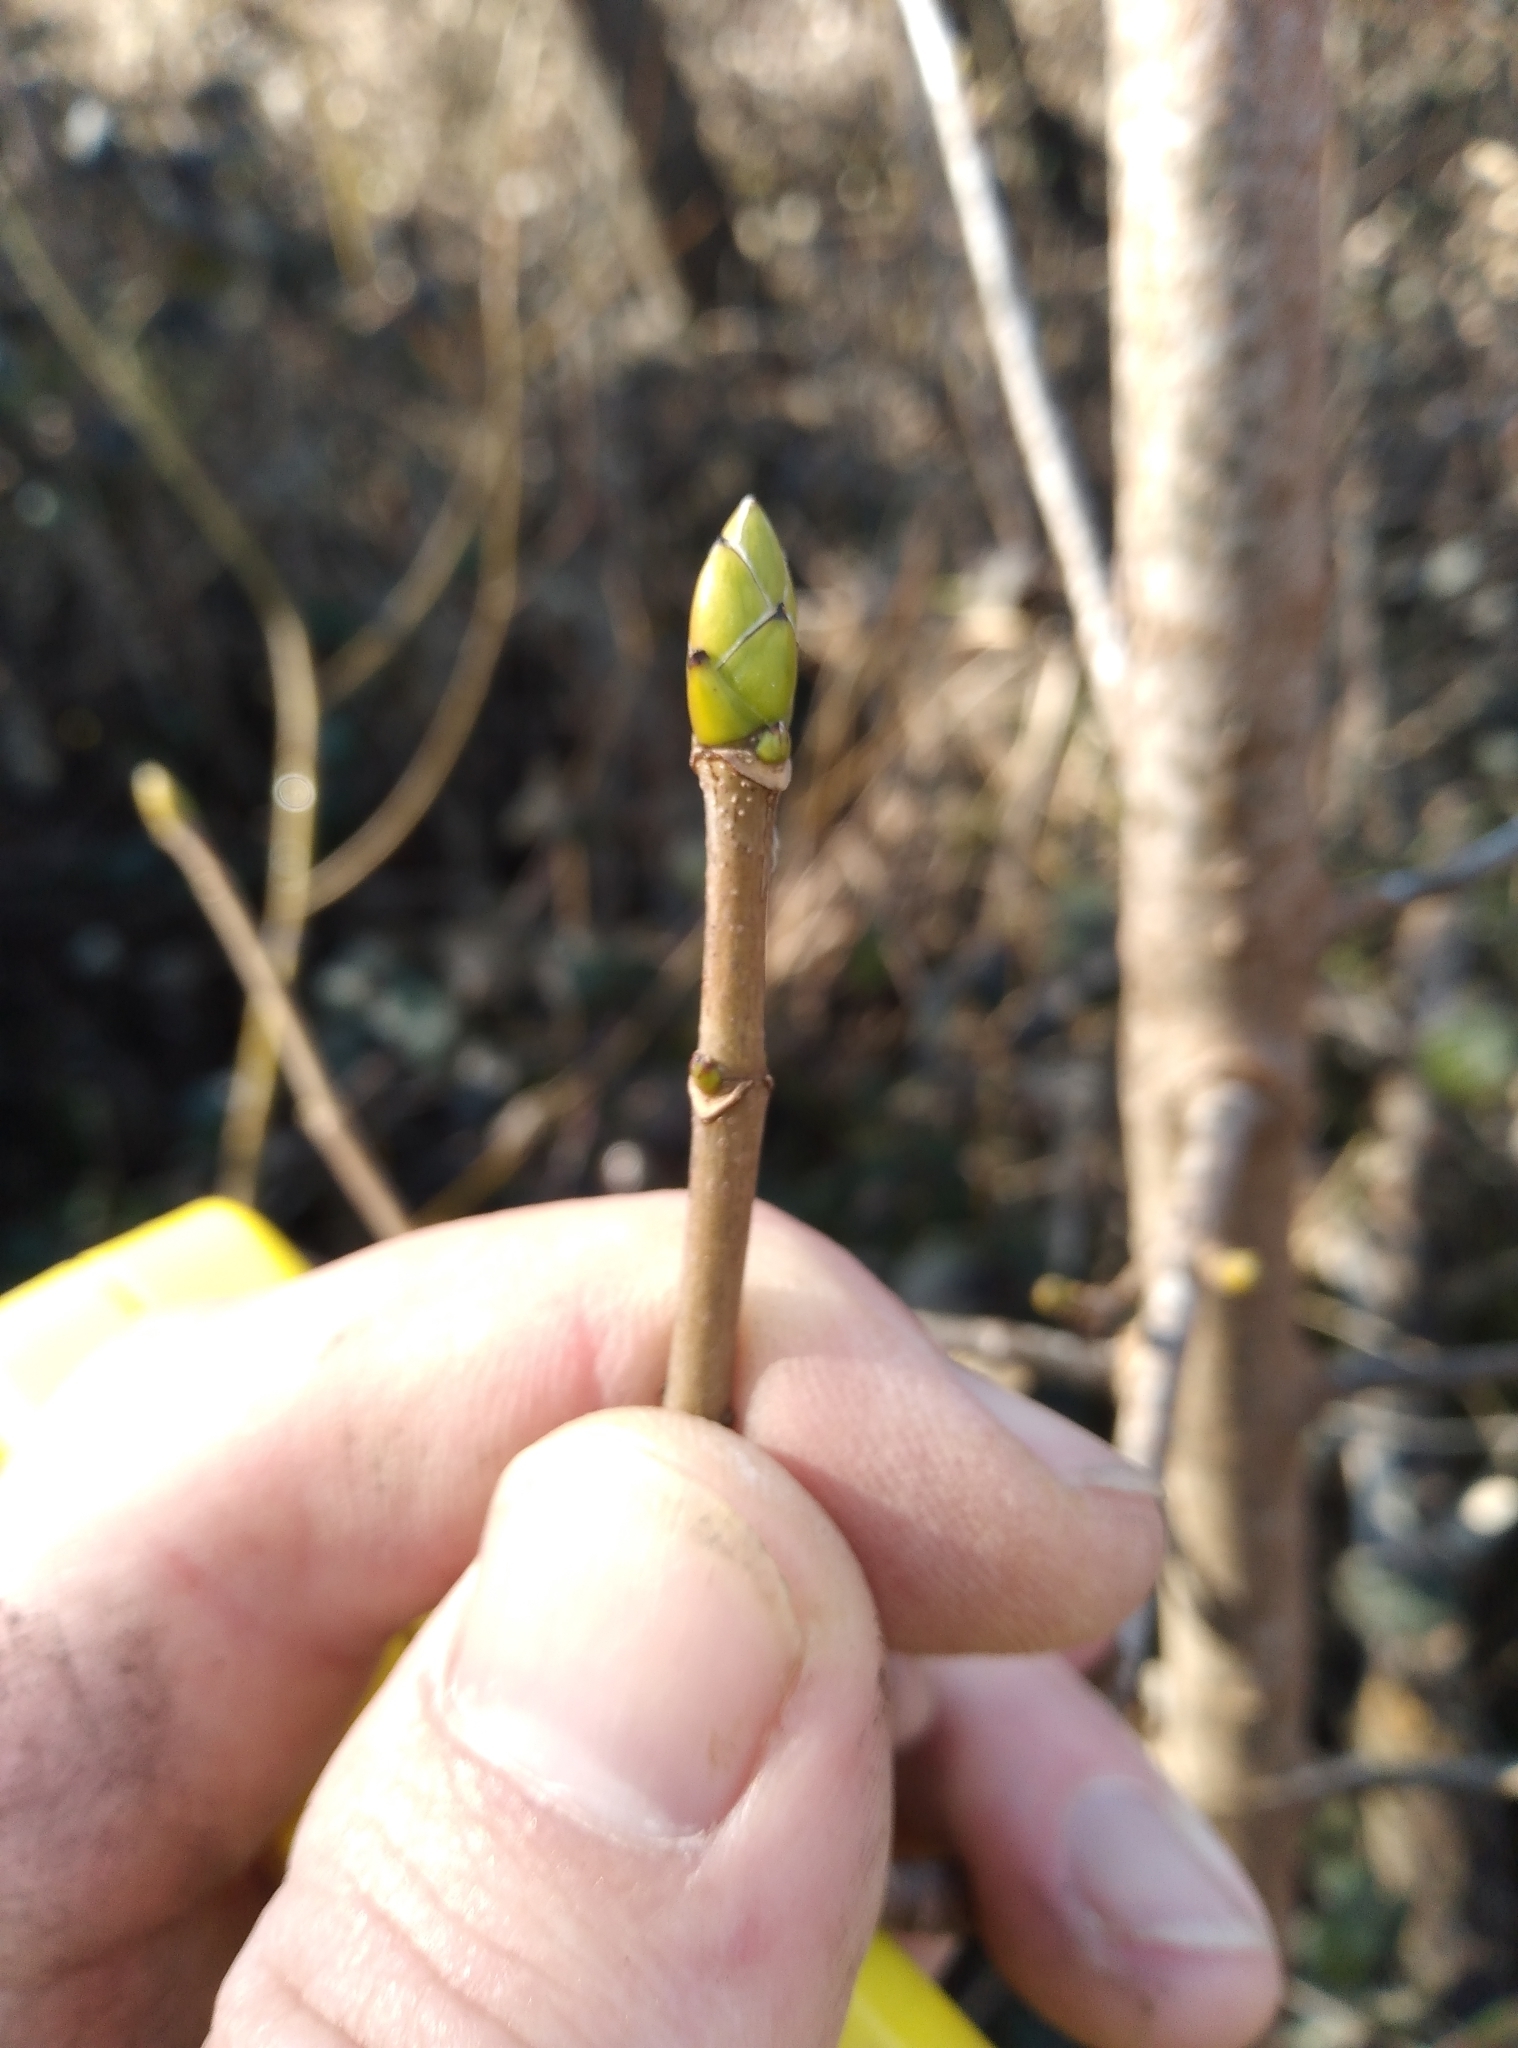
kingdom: Plantae
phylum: Tracheophyta
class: Magnoliopsida
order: Sapindales
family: Sapindaceae
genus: Acer
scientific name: Acer pseudoplatanus
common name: Sycamore
